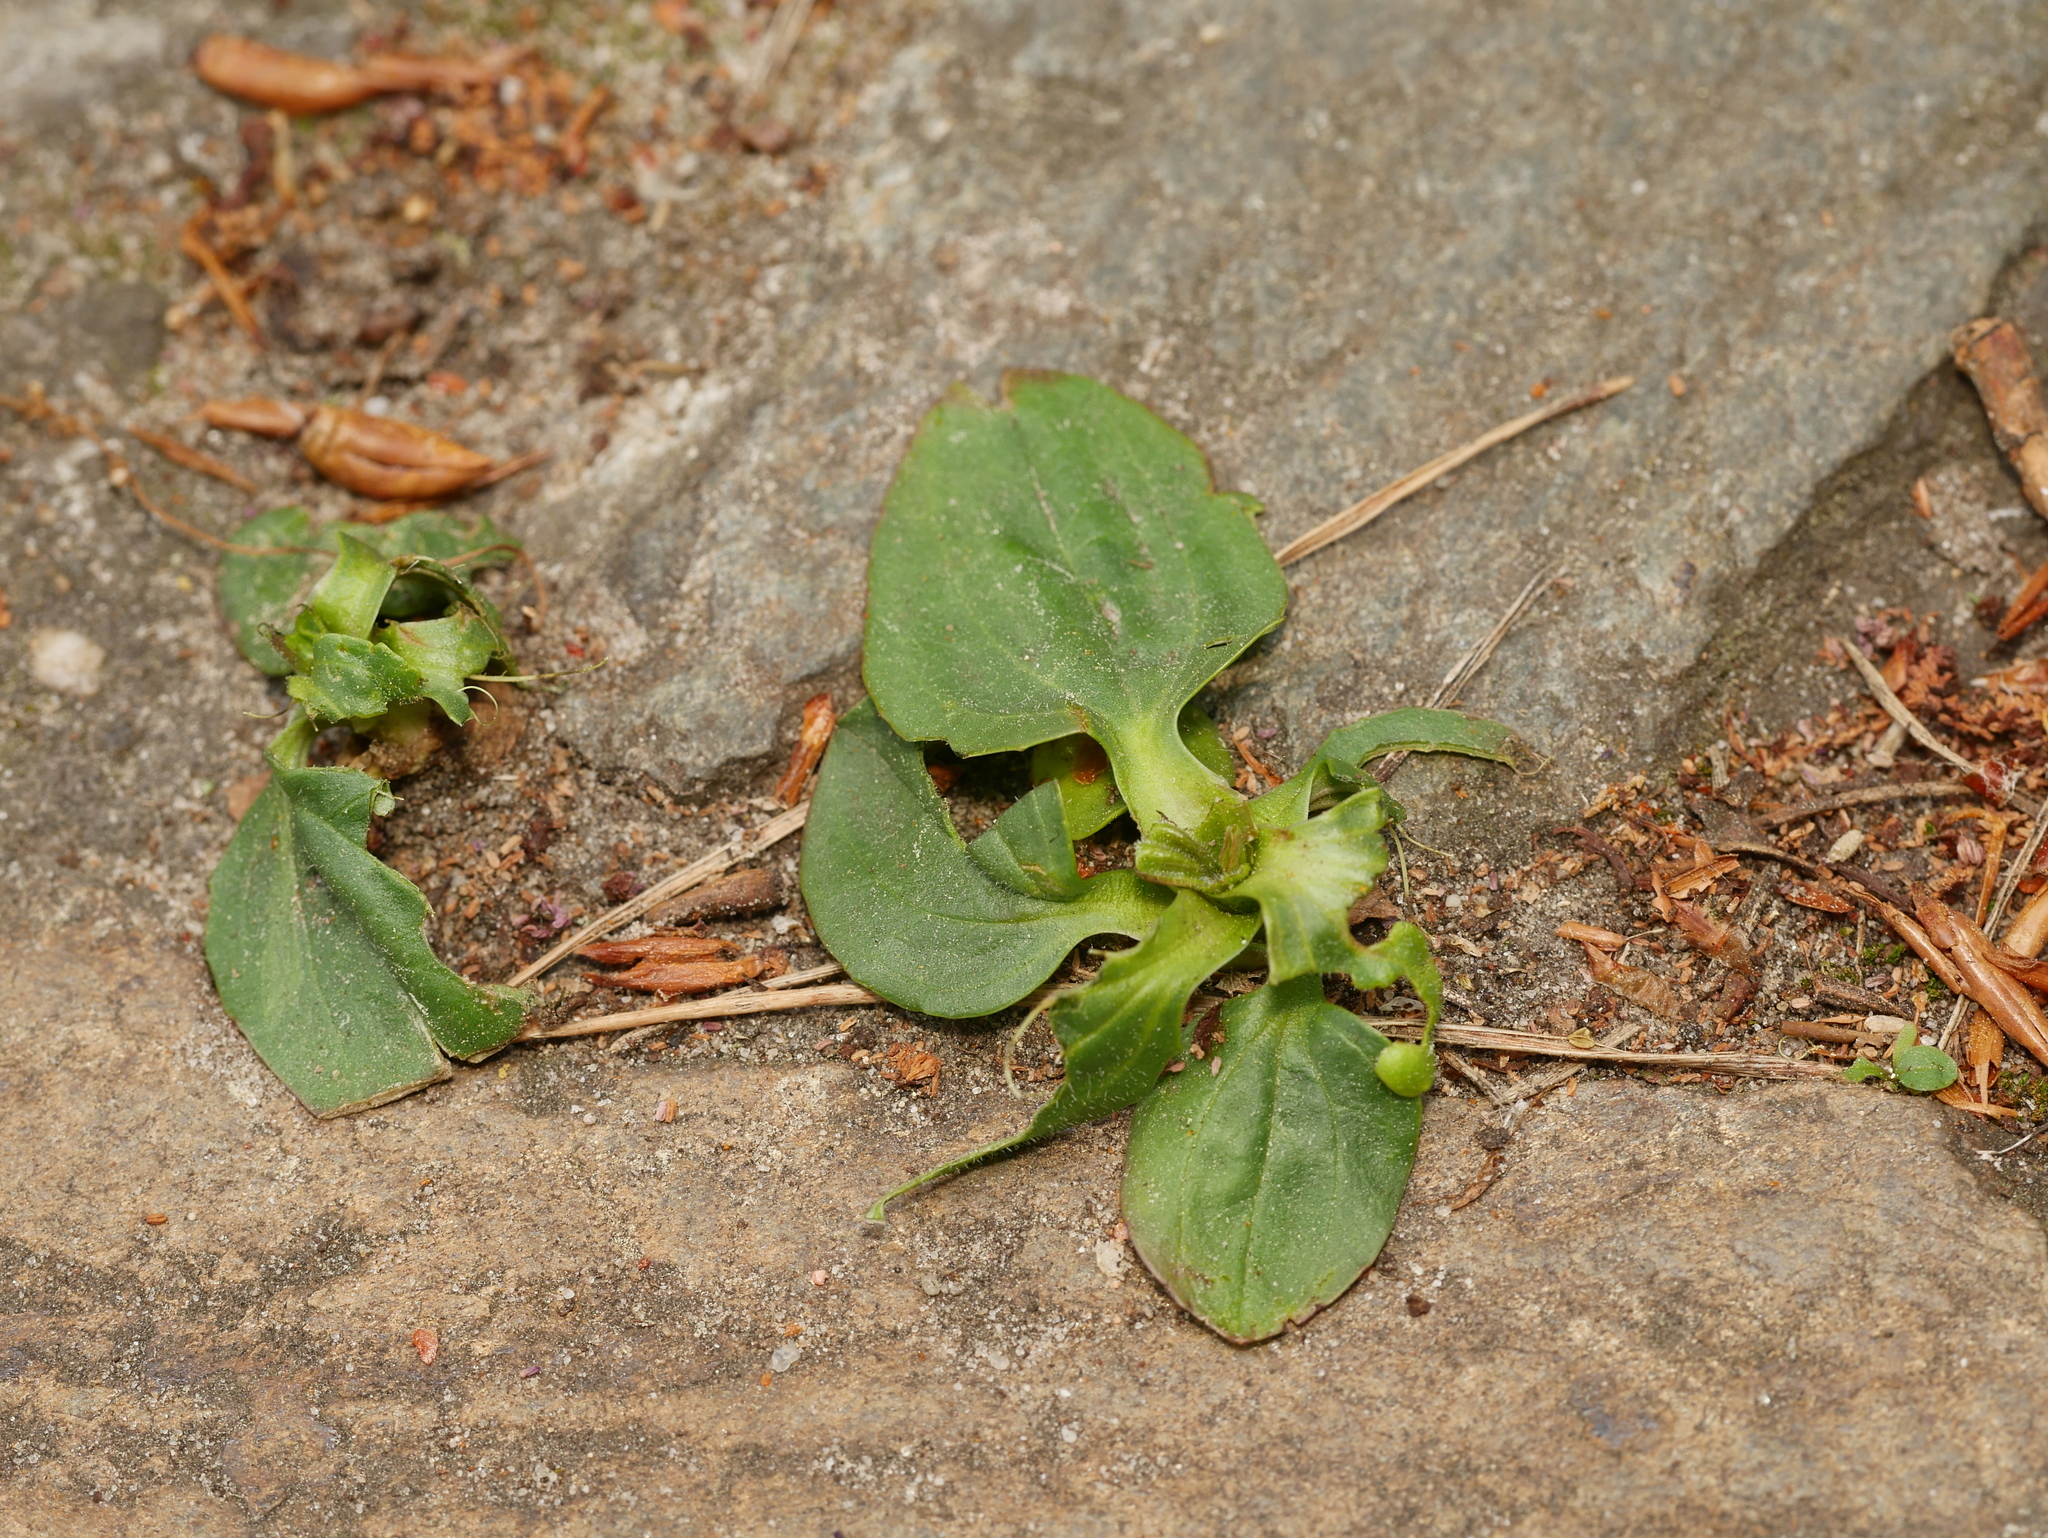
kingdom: Plantae
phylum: Tracheophyta
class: Magnoliopsida
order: Lamiales
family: Plantaginaceae
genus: Plantago
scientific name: Plantago major
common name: Common plantain
